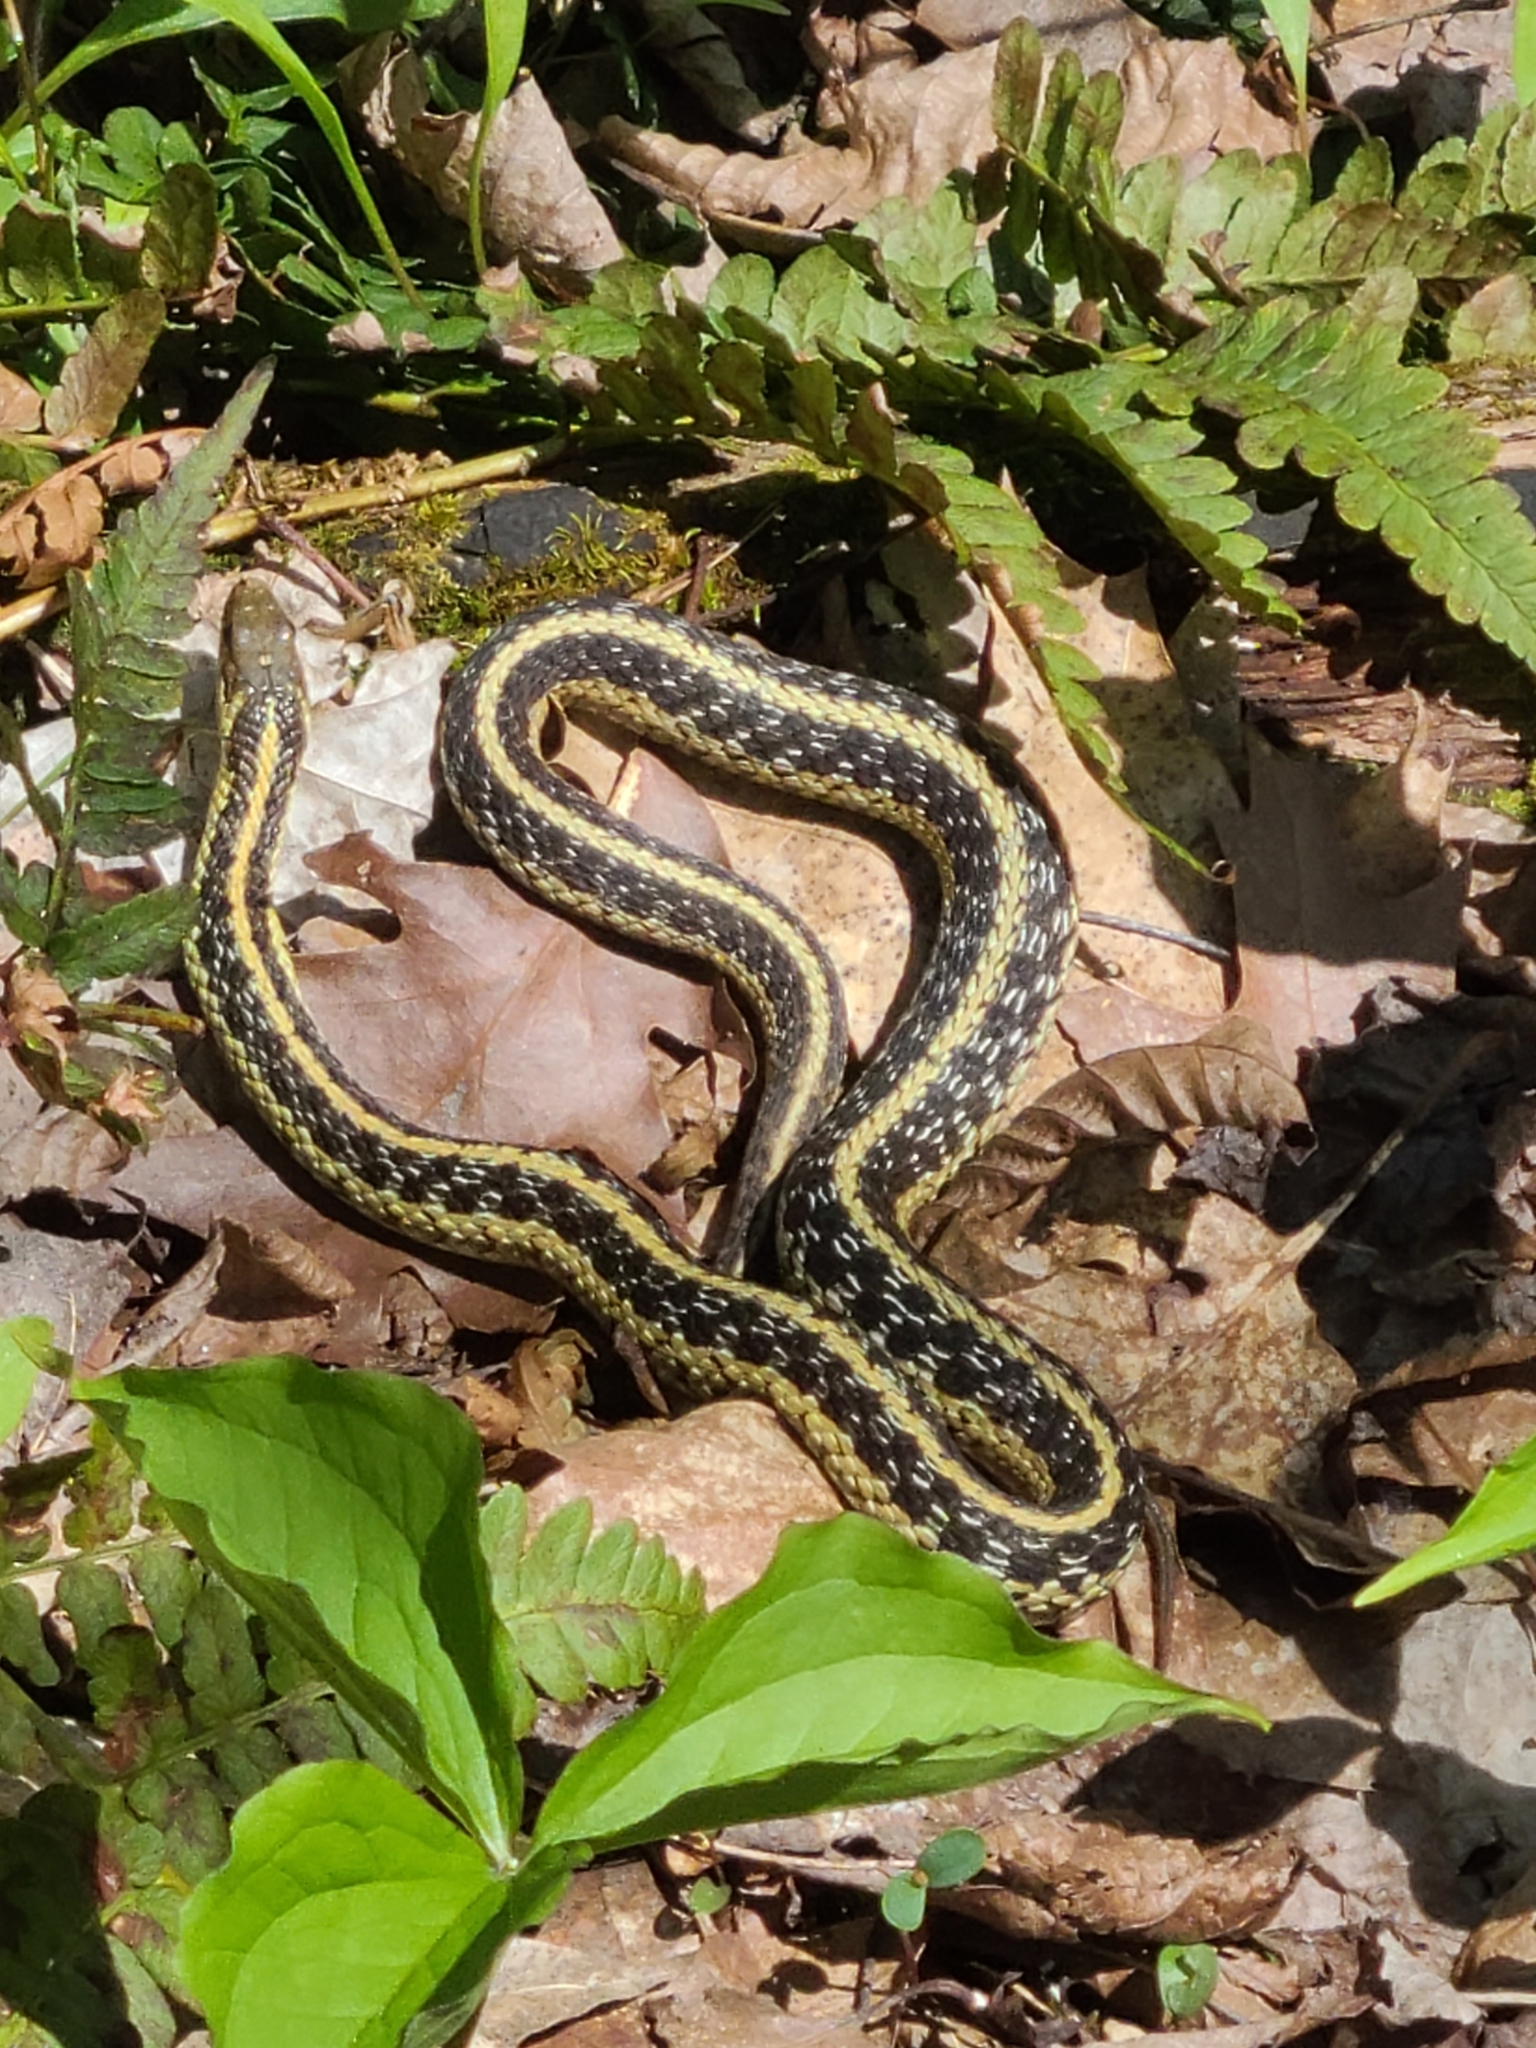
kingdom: Animalia
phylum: Chordata
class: Squamata
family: Colubridae
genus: Thamnophis
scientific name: Thamnophis sirtalis
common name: Common garter snake
